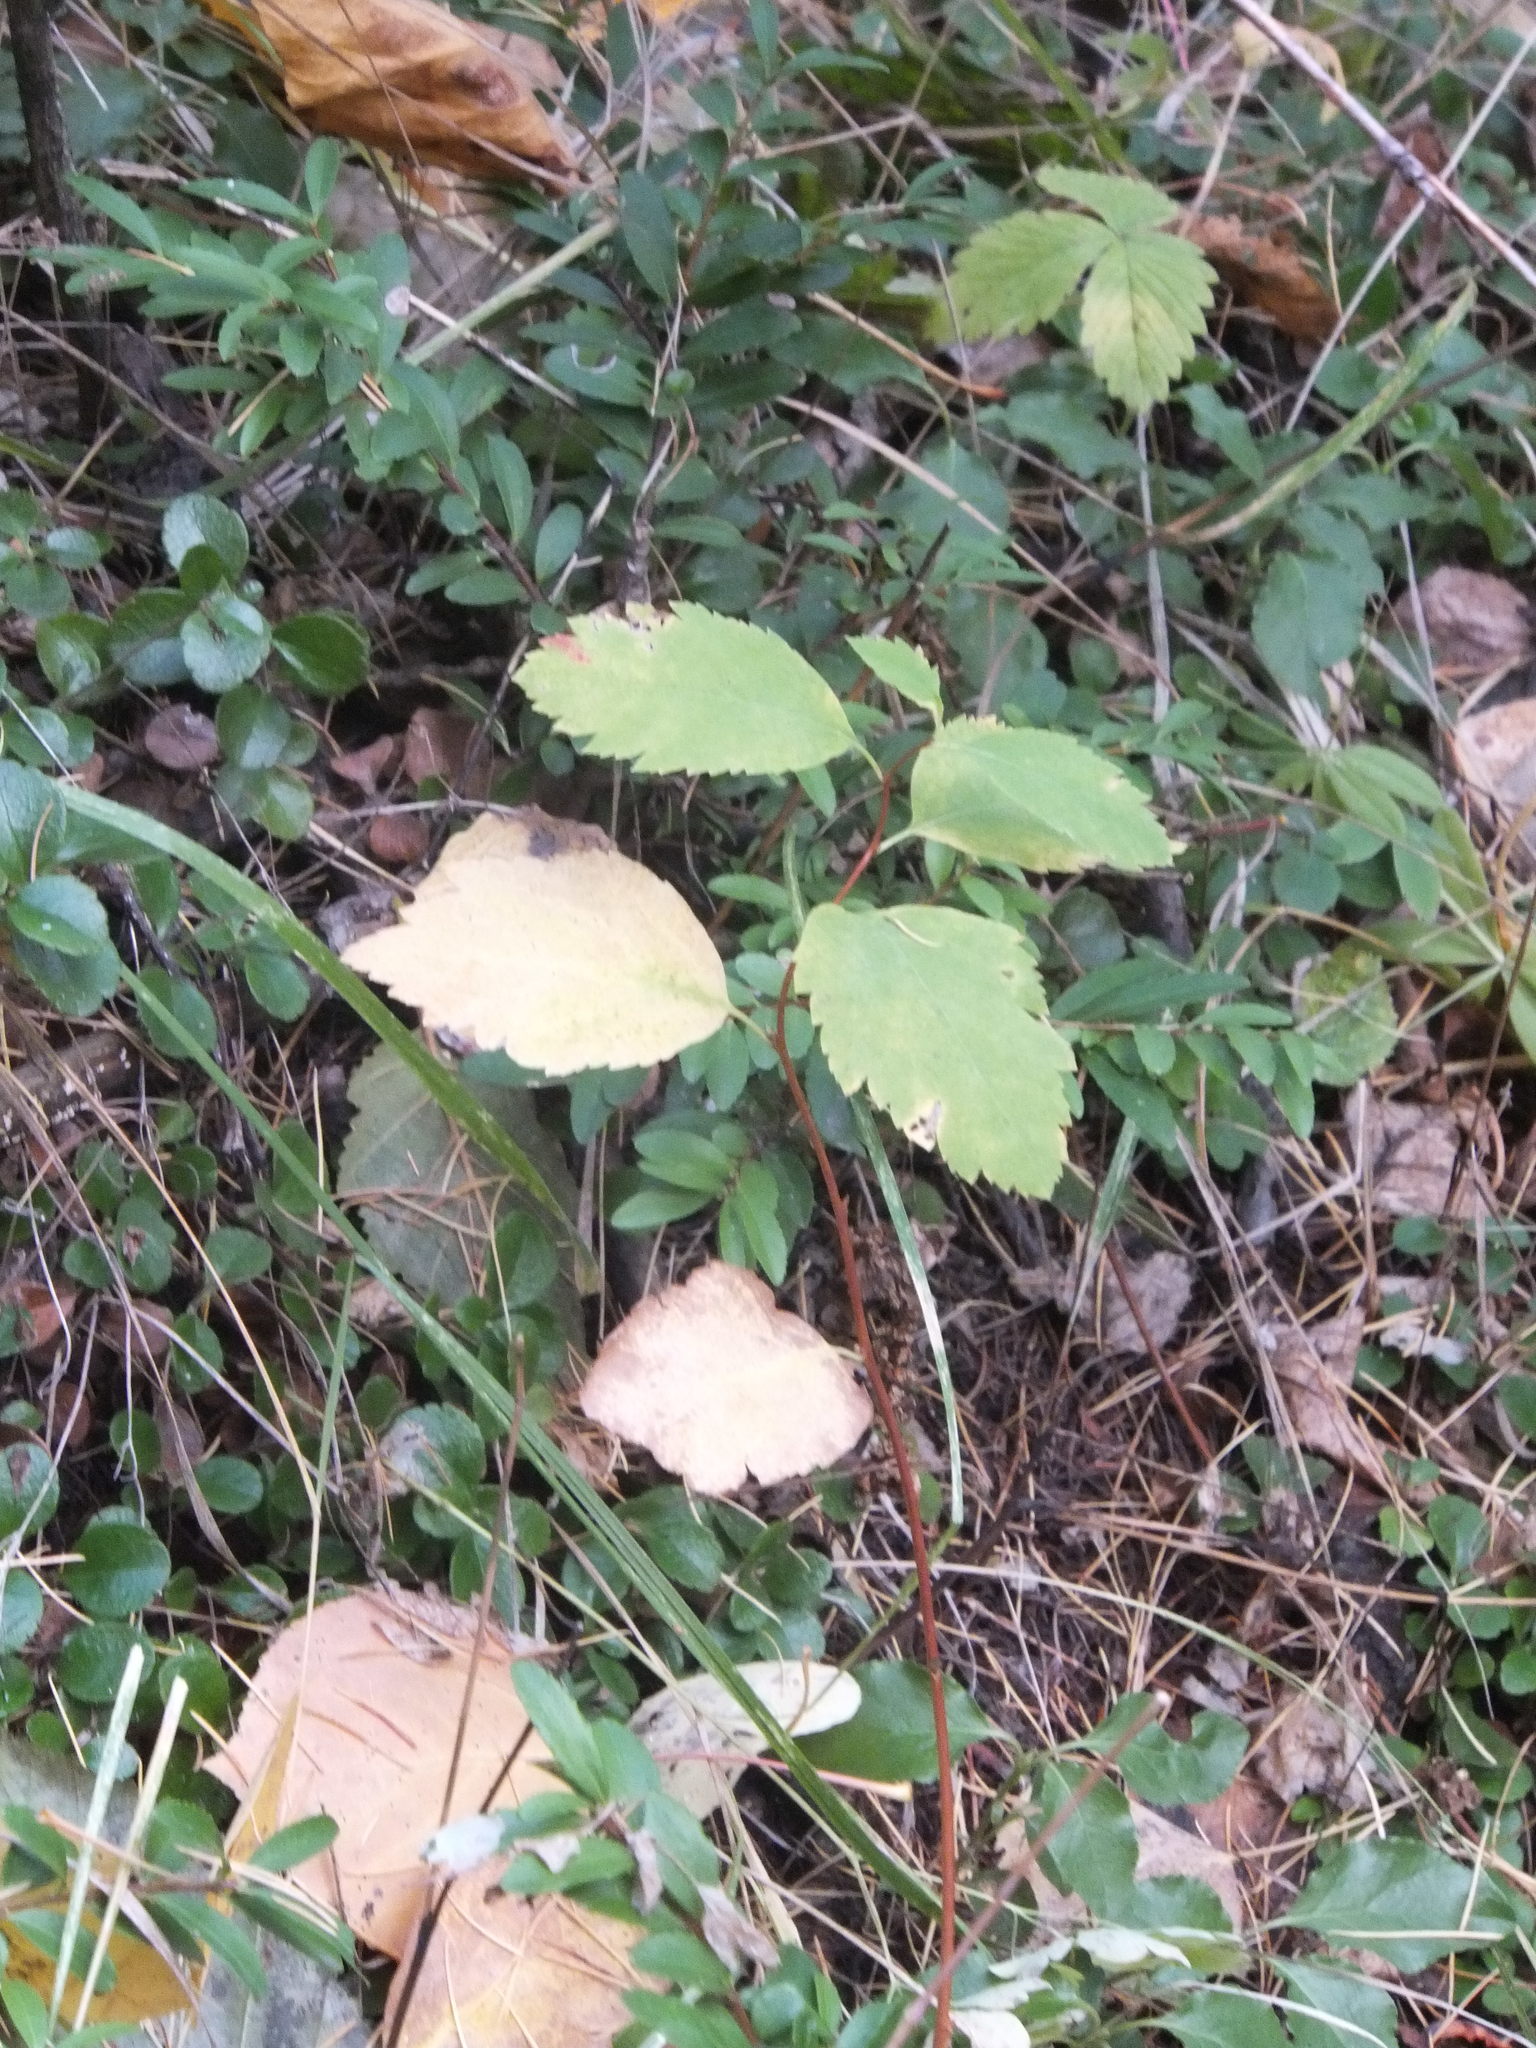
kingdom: Plantae
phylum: Tracheophyta
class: Magnoliopsida
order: Rosales
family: Rosaceae
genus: Spiraea
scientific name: Spiraea lucida
